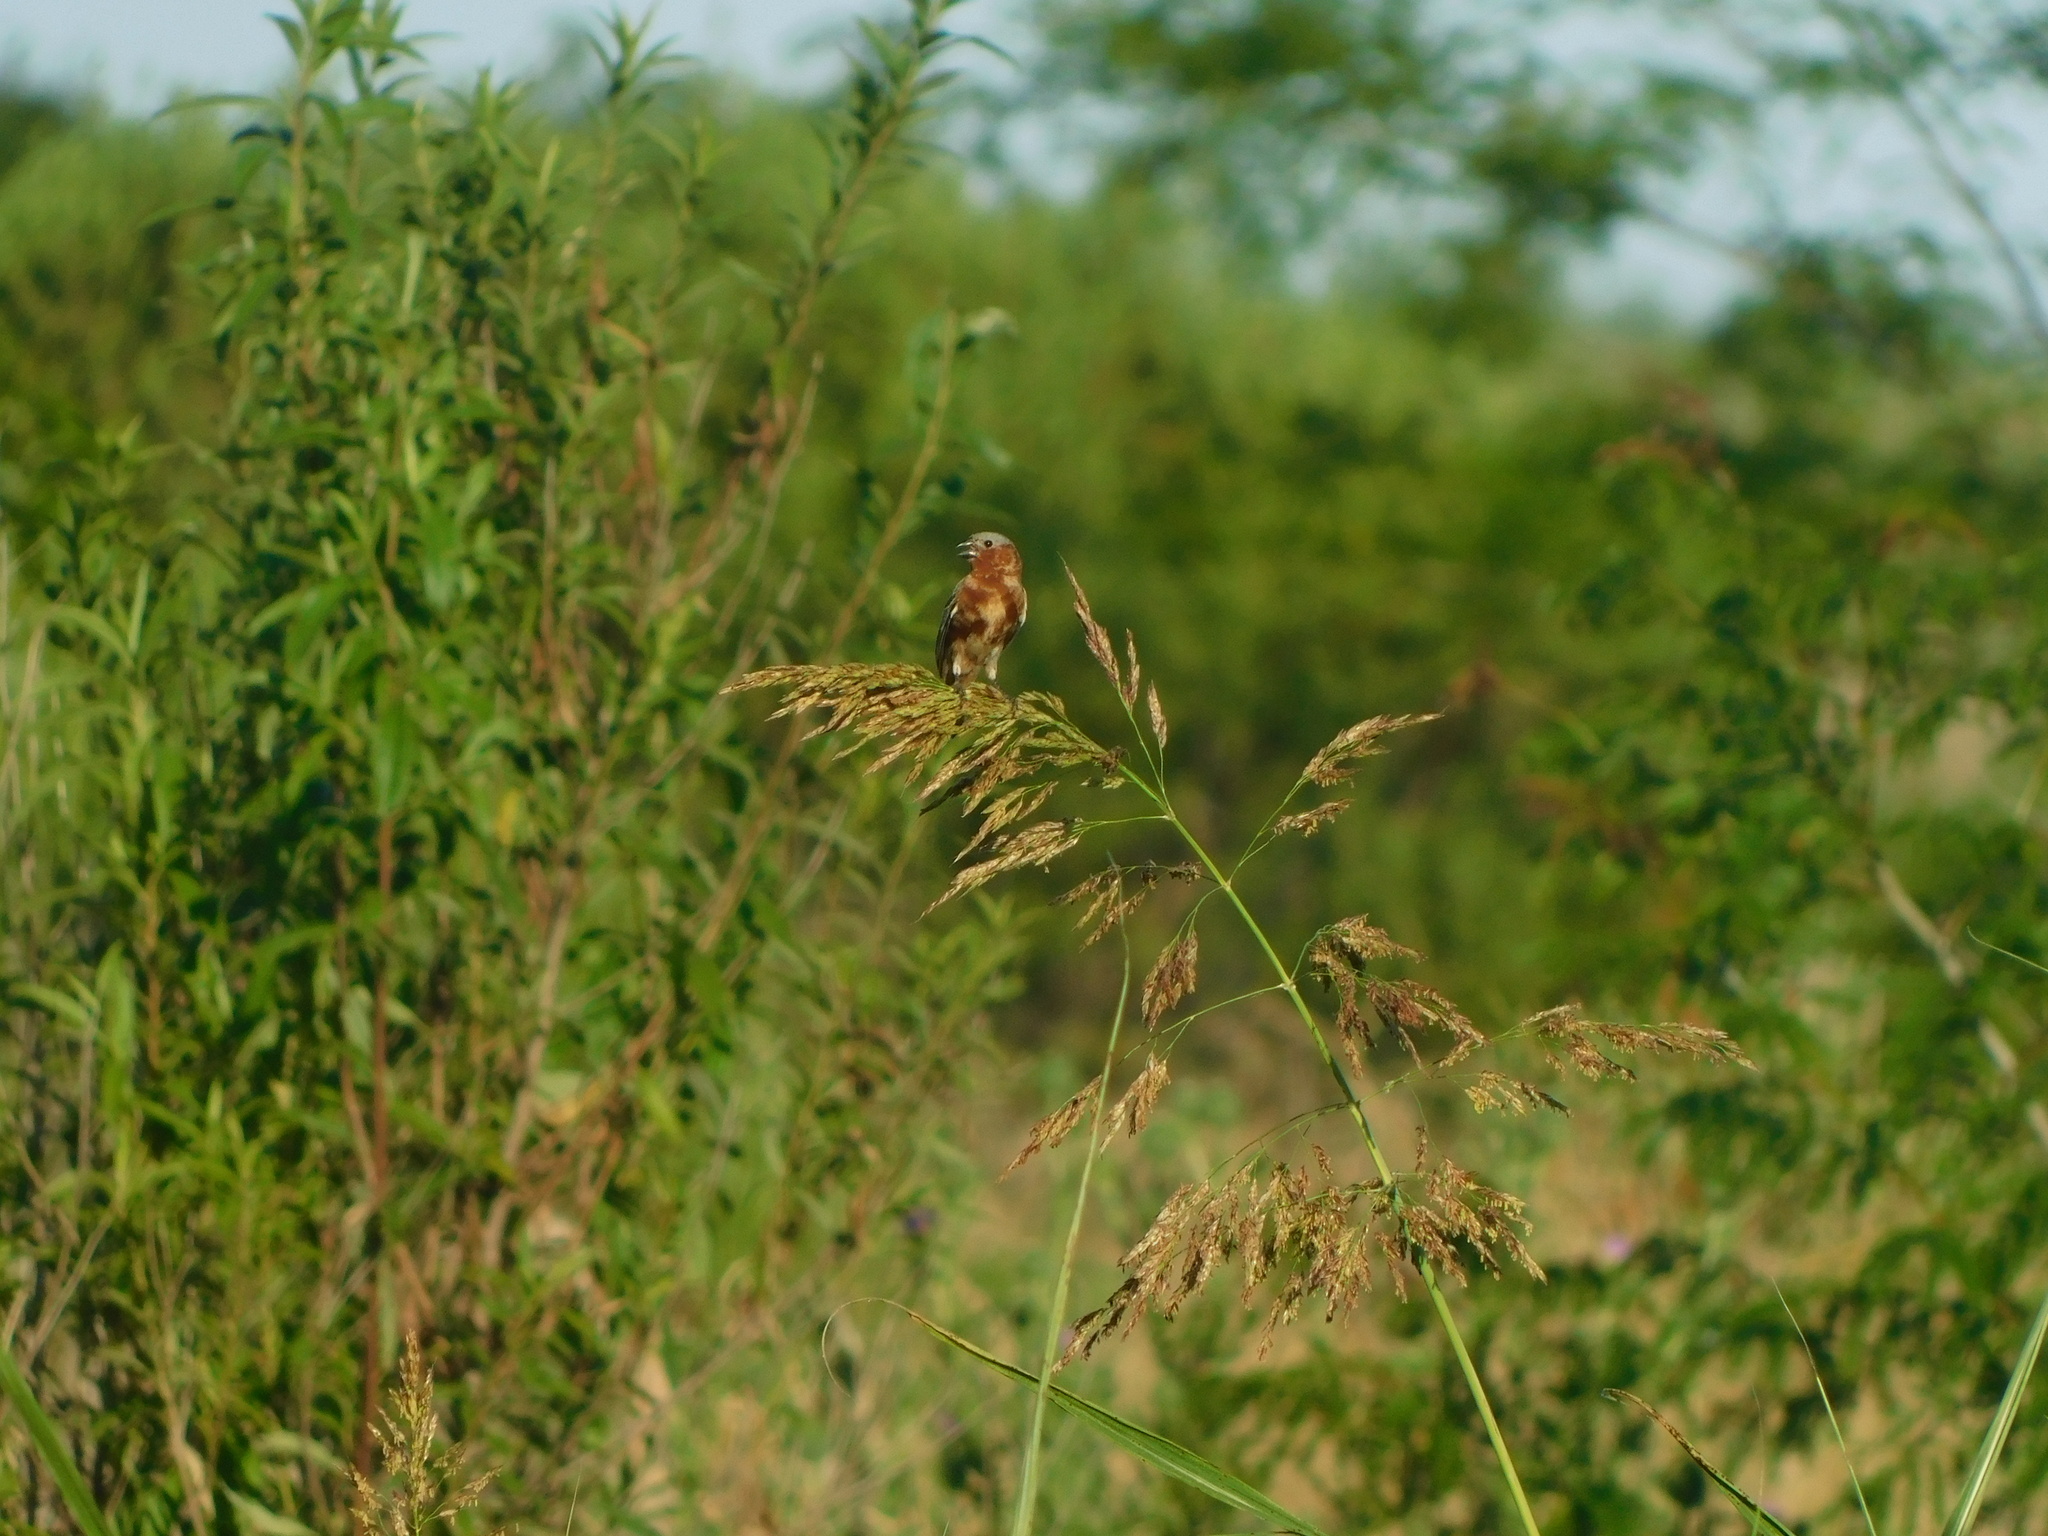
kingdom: Animalia
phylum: Chordata
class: Aves
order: Passeriformes
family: Thraupidae
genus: Sporophila
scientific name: Sporophila cinnamomea
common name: Chestnut seedeater
